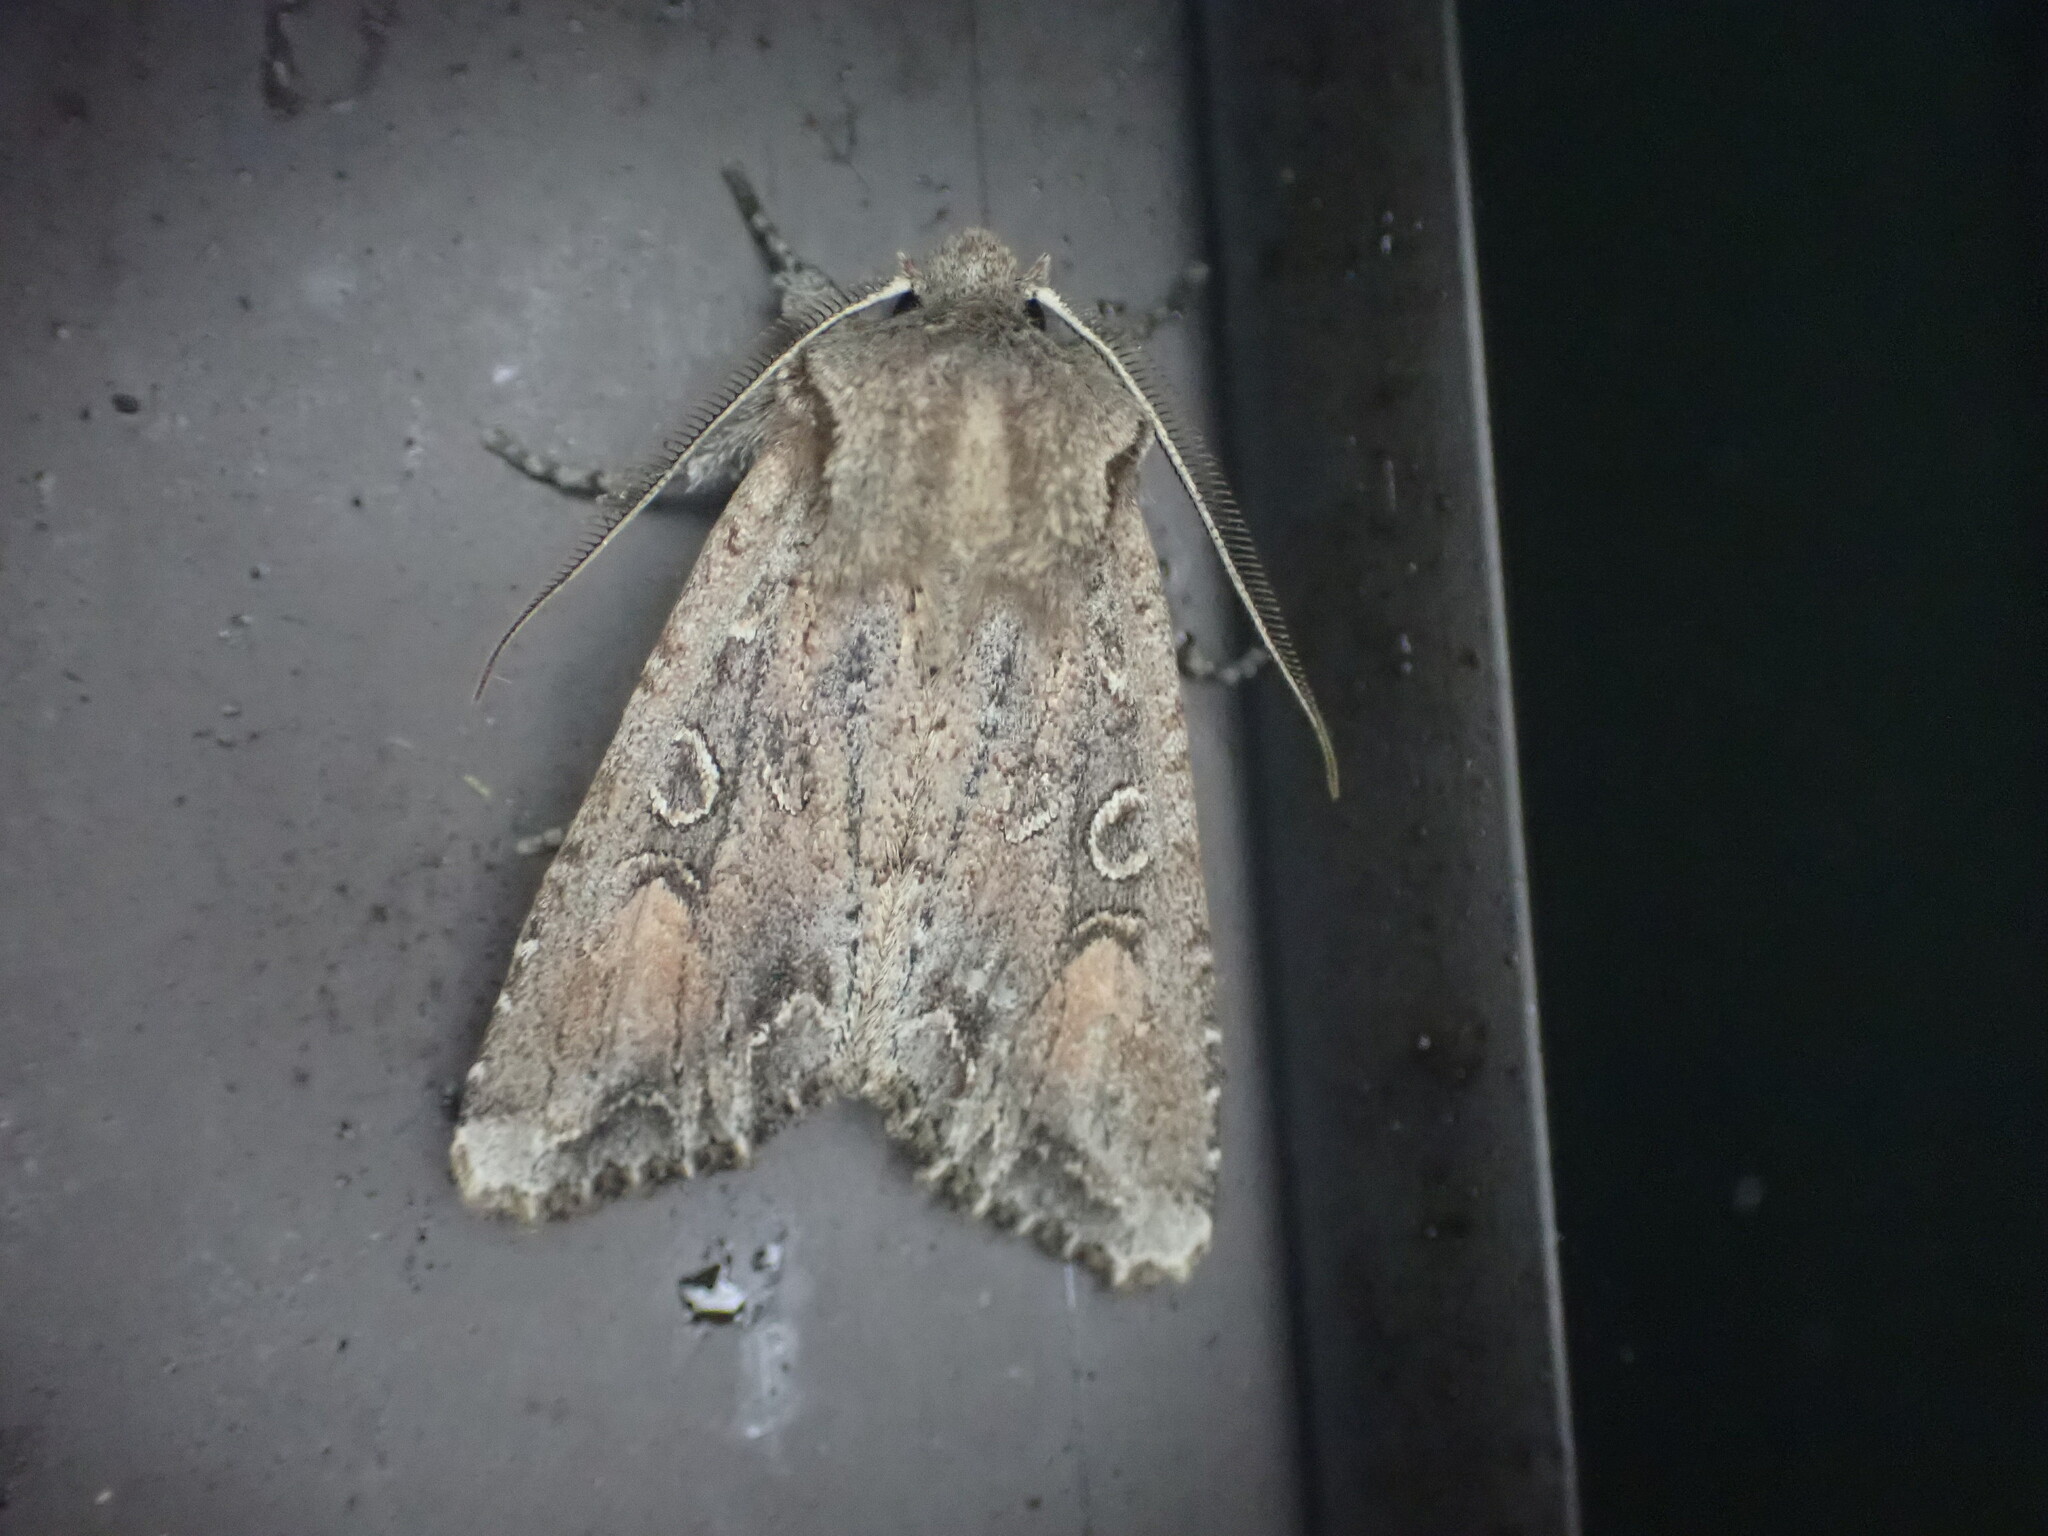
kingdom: Animalia
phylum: Arthropoda
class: Insecta
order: Lepidoptera
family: Noctuidae
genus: Ichneutica
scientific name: Ichneutica
